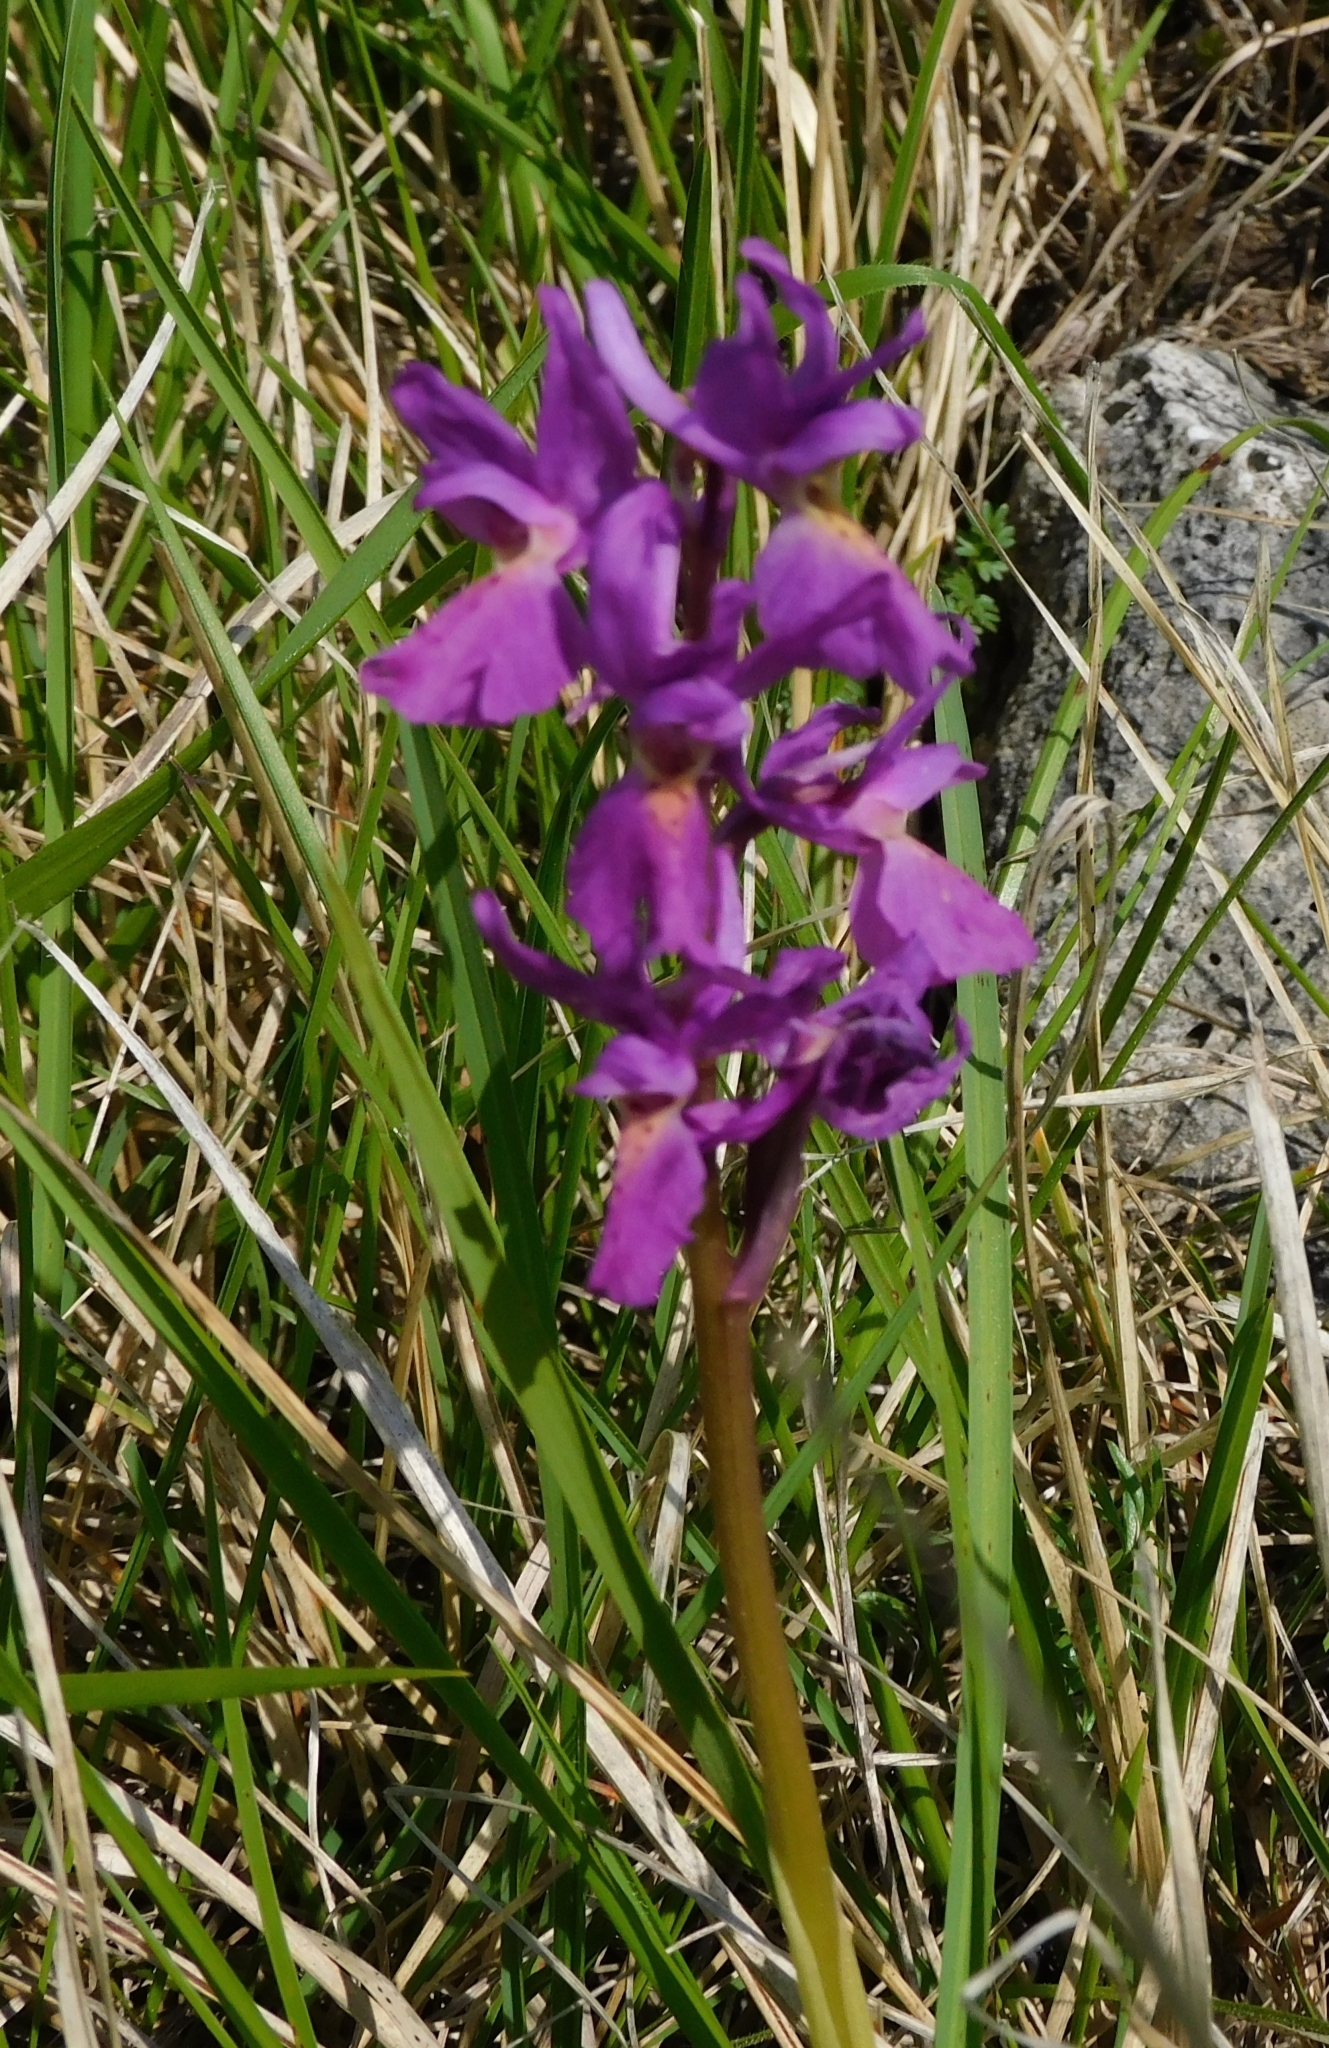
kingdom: Plantae
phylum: Tracheophyta
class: Liliopsida
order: Asparagales
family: Orchidaceae
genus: Orchis
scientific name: Orchis mascula
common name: Early-purple orchid
